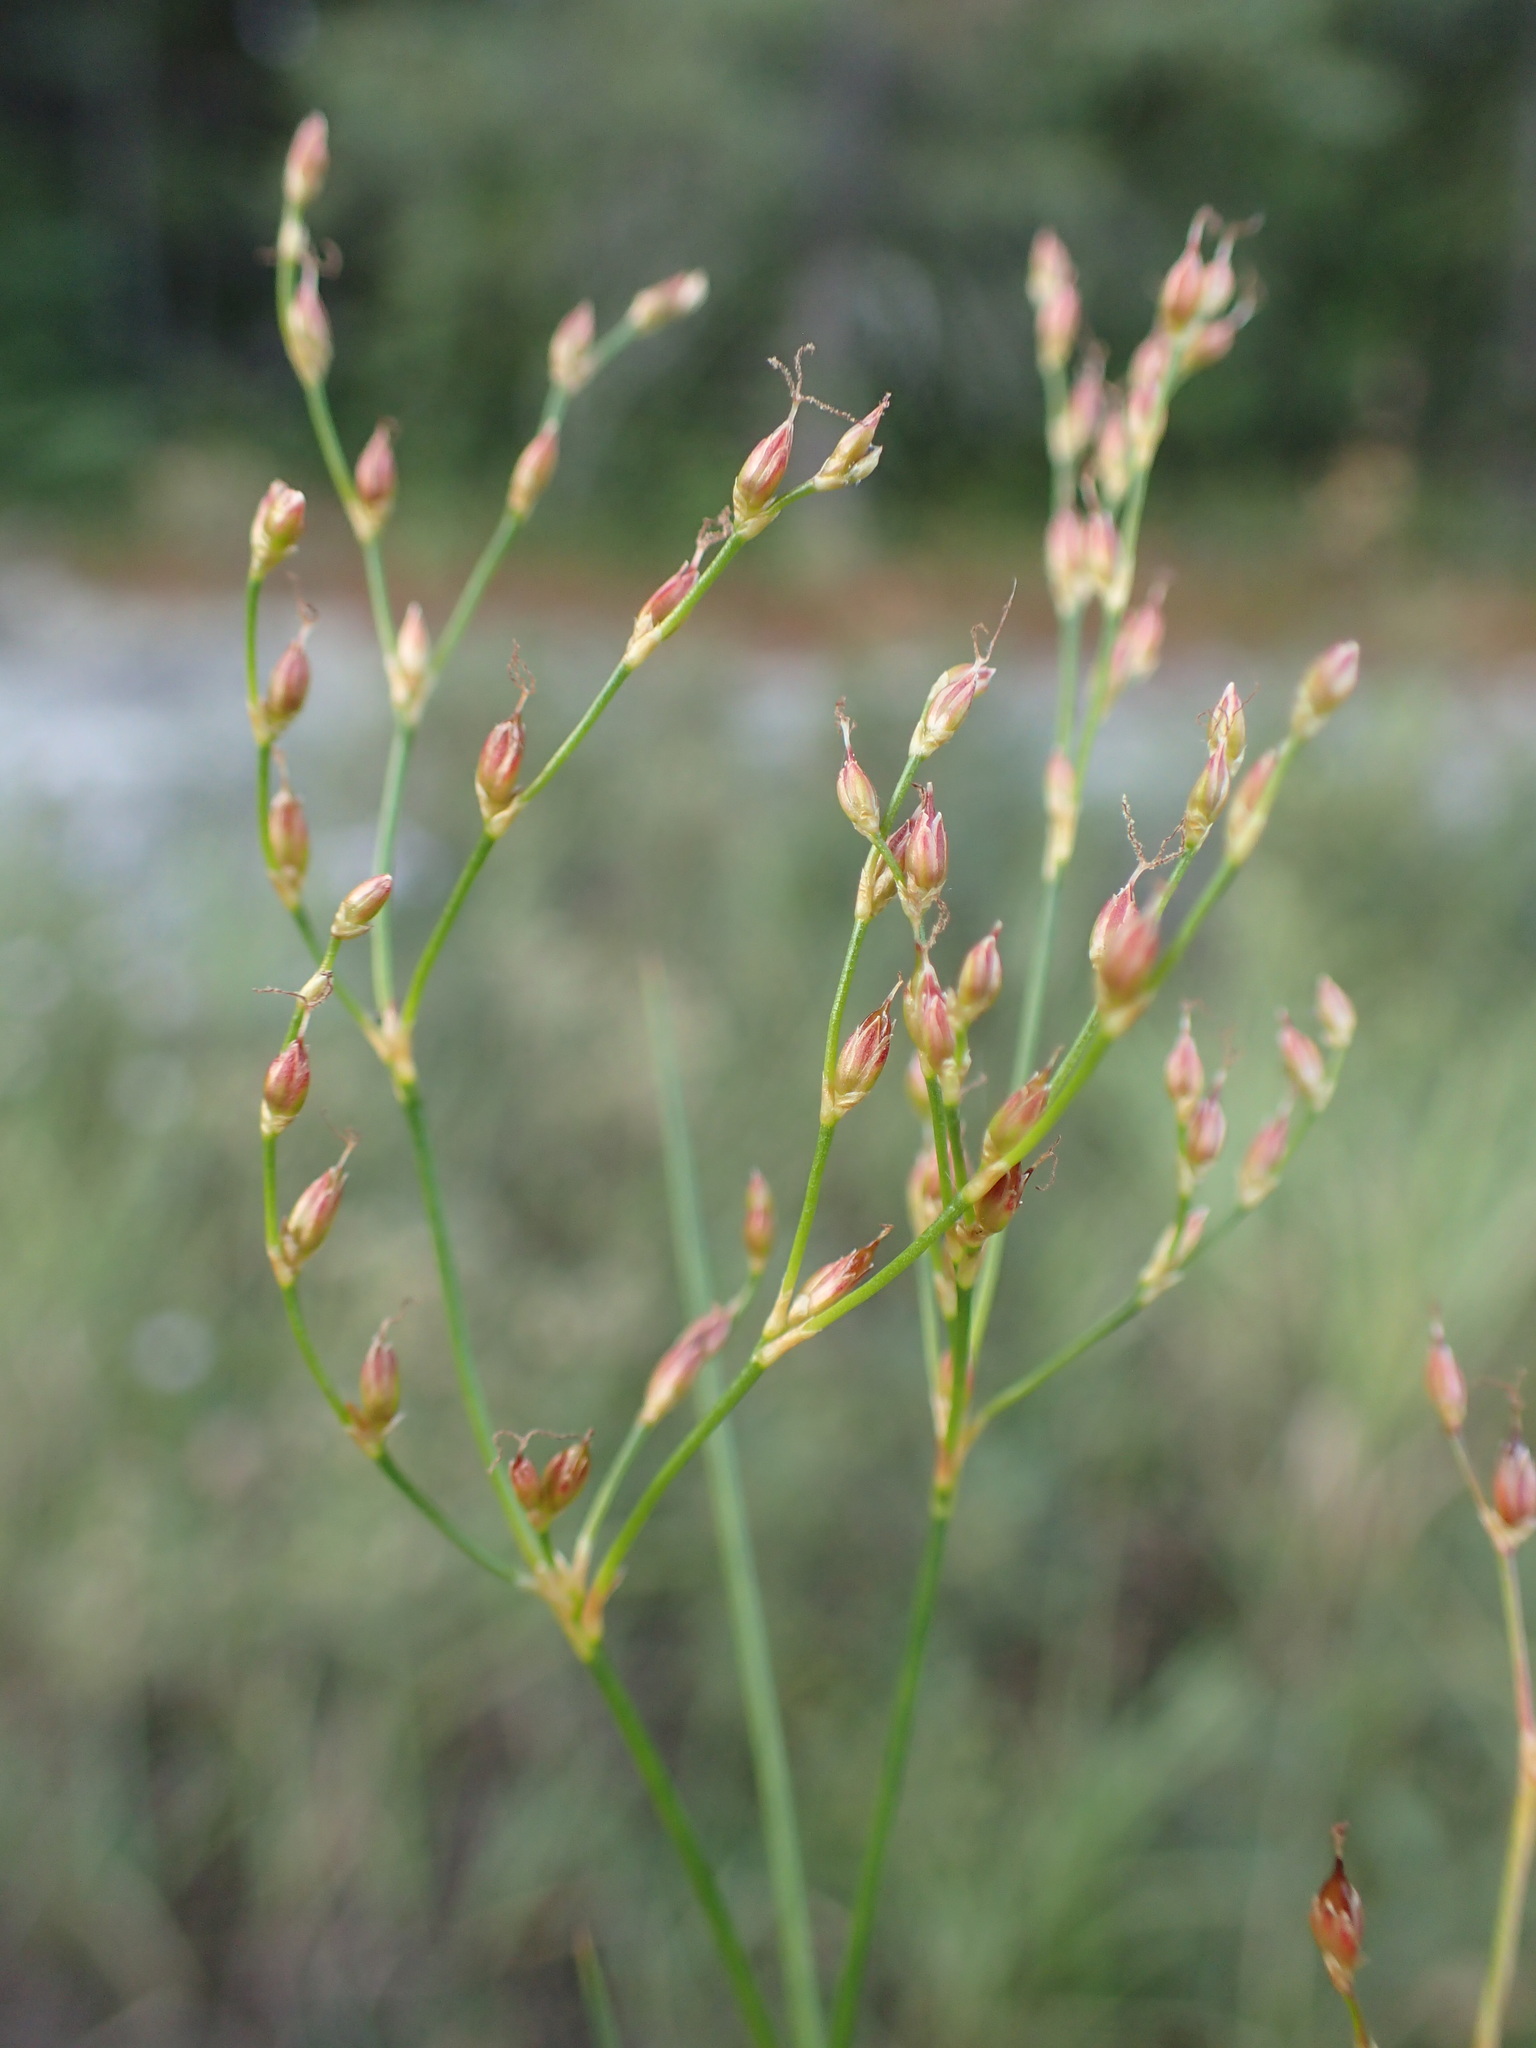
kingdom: Plantae
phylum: Tracheophyta
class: Liliopsida
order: Poales
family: Juncaceae
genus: Juncus
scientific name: Juncus pelocarpus
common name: Brown-fruited rush
